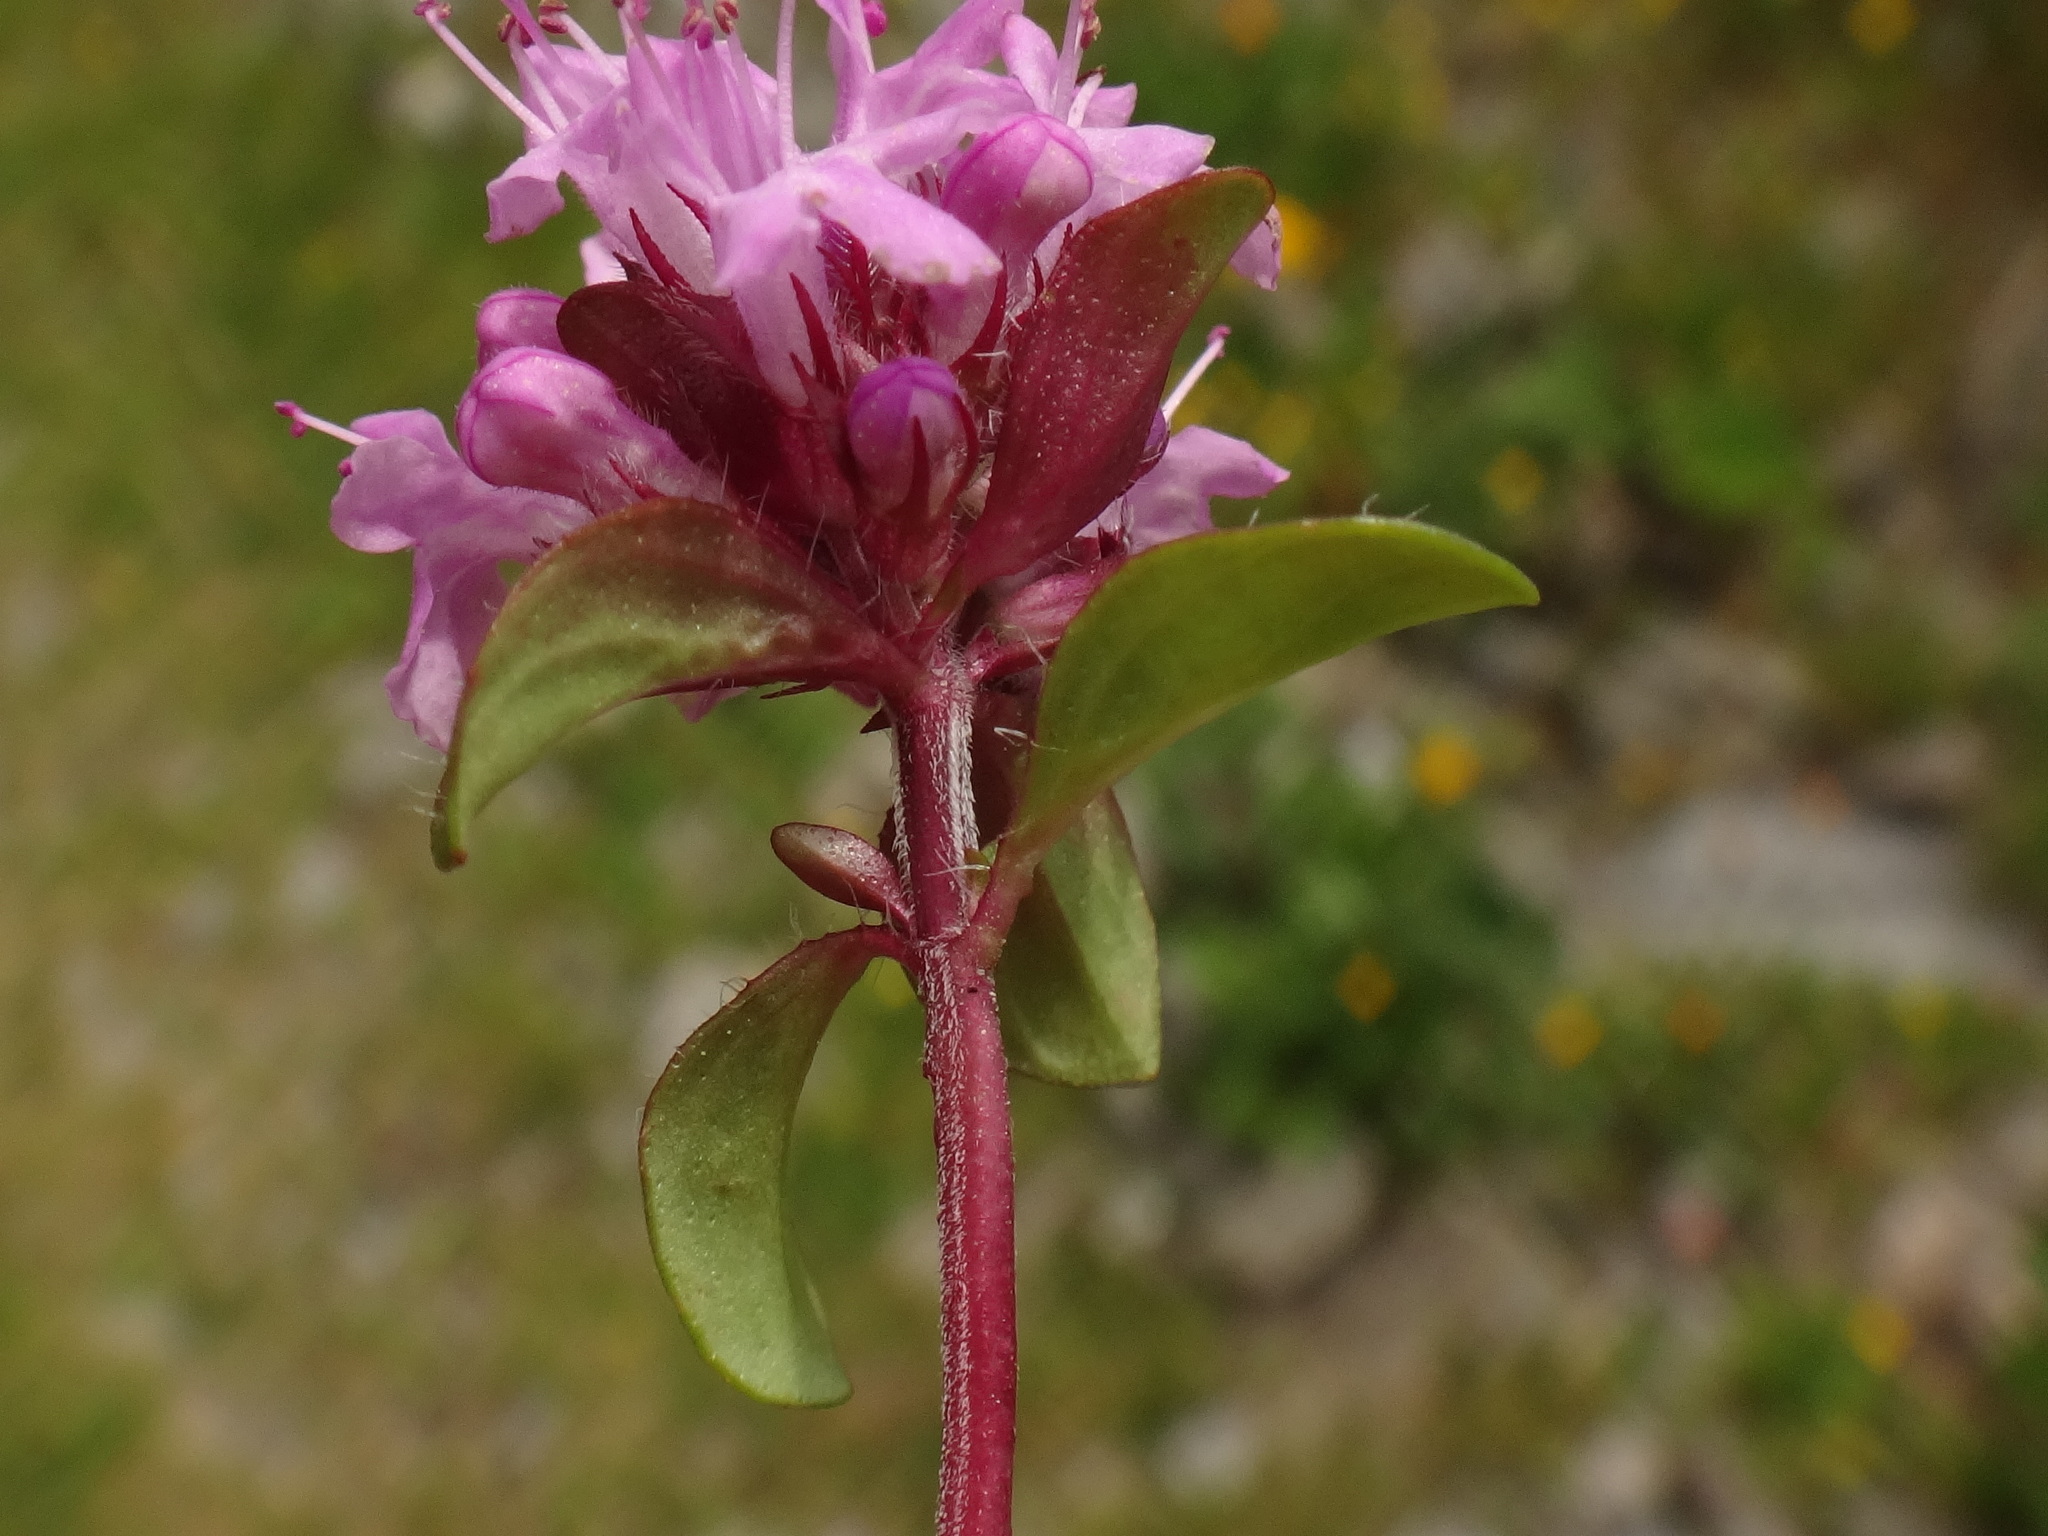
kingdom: Plantae
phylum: Tracheophyta
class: Magnoliopsida
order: Lamiales
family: Lamiaceae
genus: Thymus
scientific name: Thymus pulegioides
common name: Large thyme
